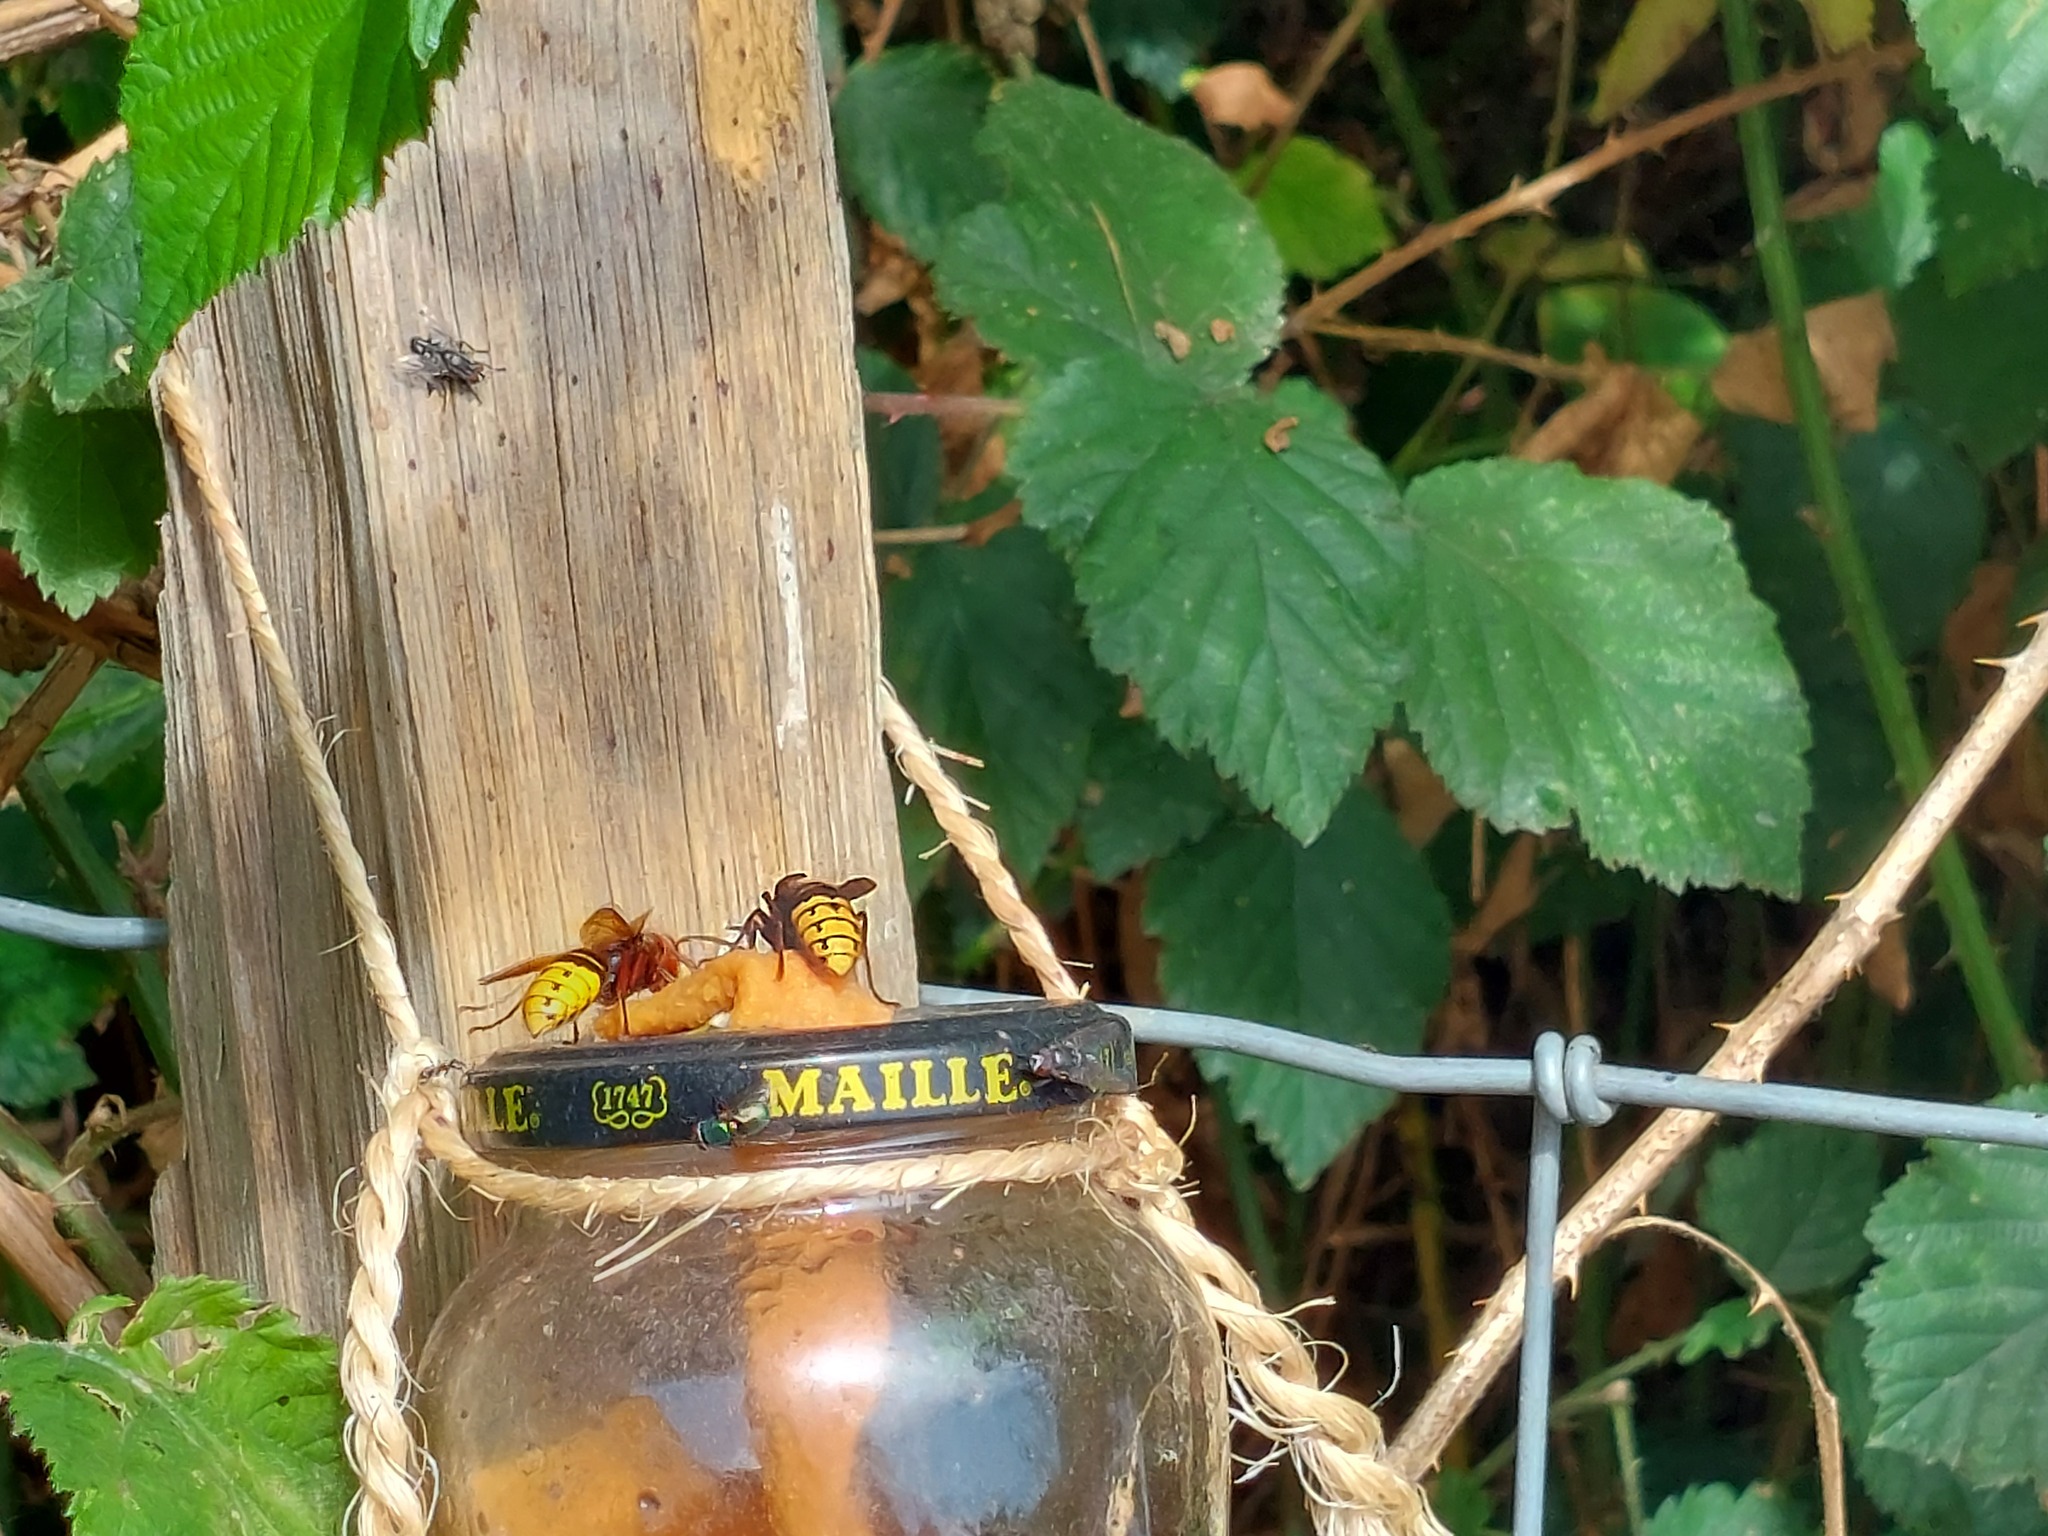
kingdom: Animalia
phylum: Arthropoda
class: Insecta
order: Hymenoptera
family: Vespidae
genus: Vespa
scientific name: Vespa crabro
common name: Hornet
